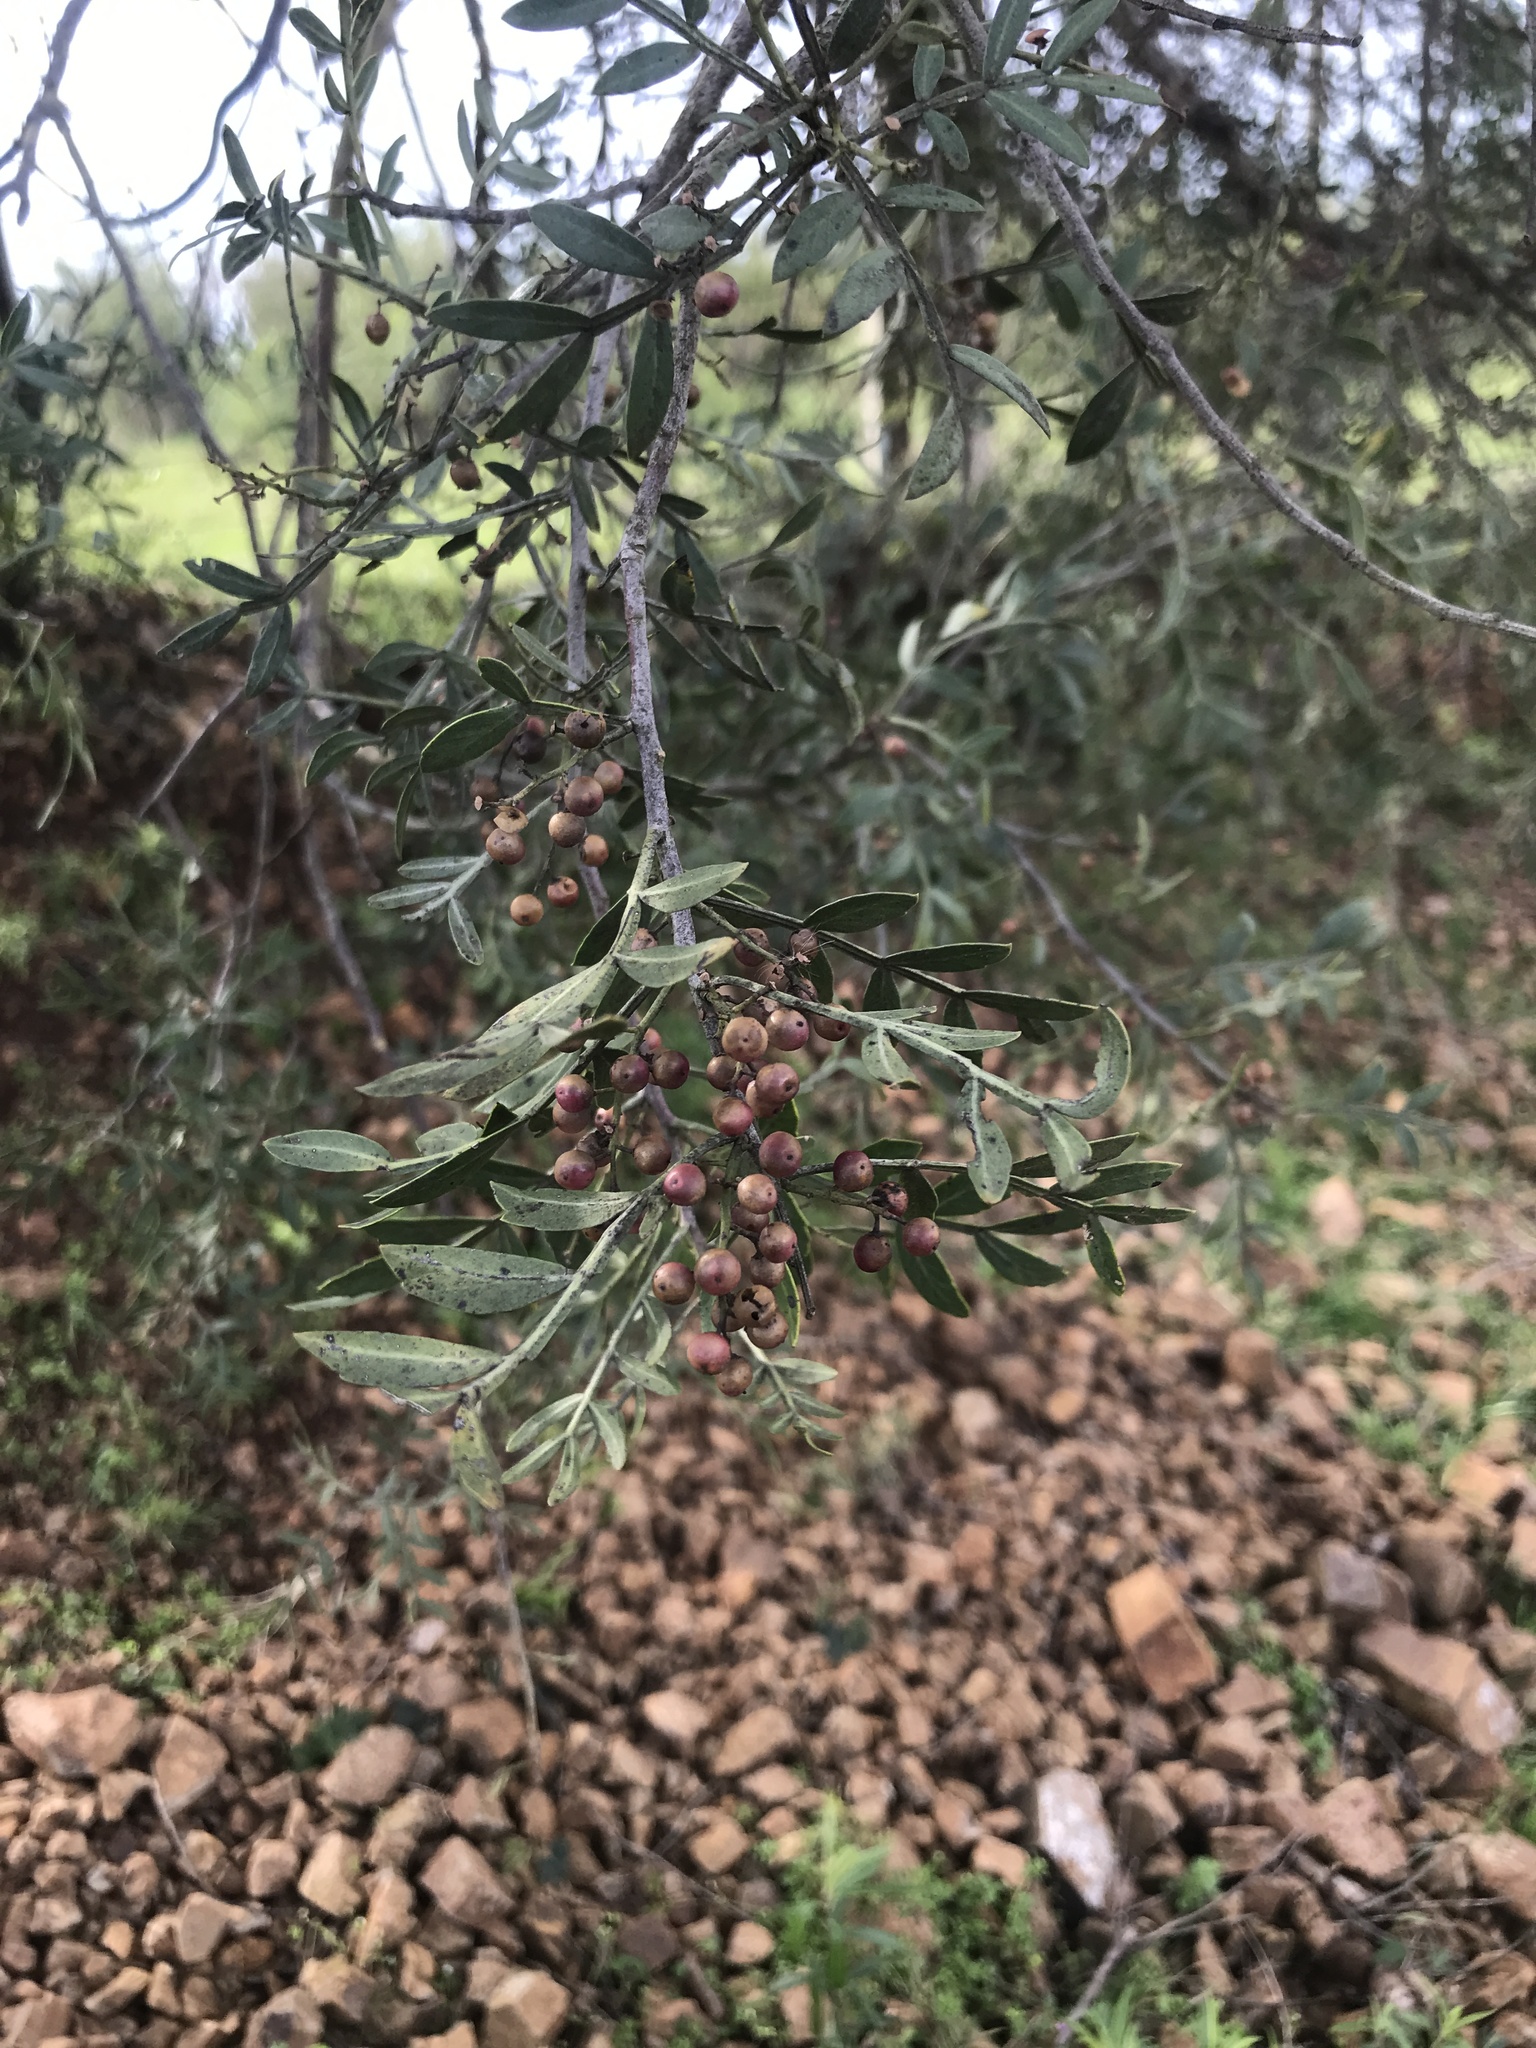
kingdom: Plantae
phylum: Tracheophyta
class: Magnoliopsida
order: Sapindales
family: Anacardiaceae
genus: Schinus
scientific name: Schinus lentiscifolia
